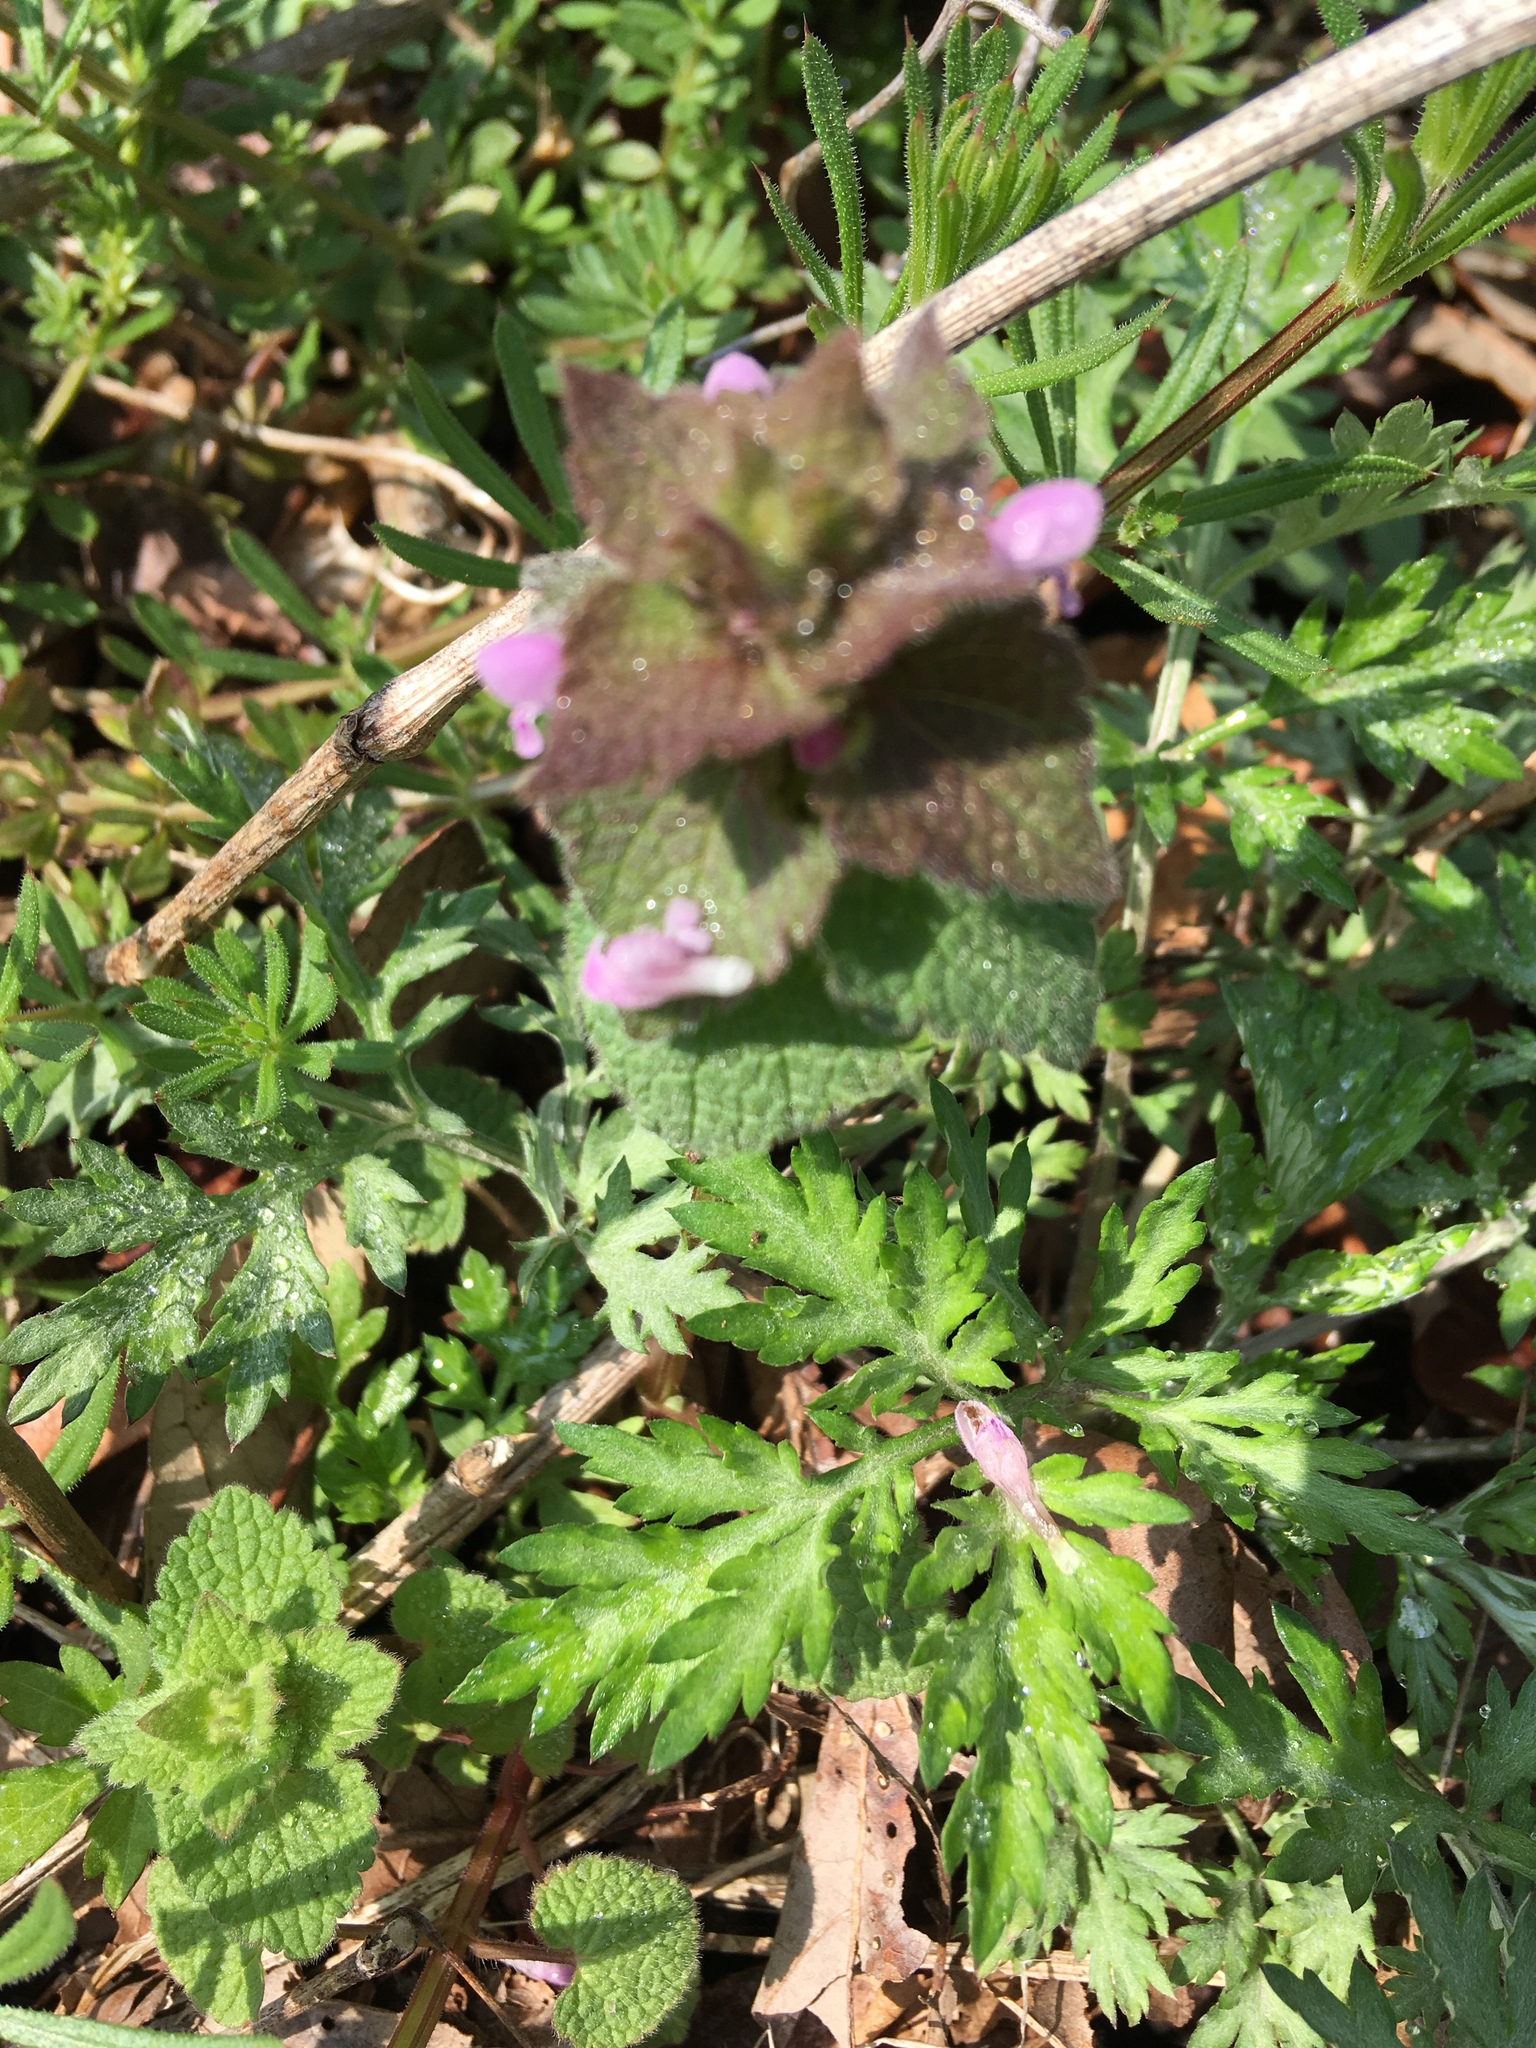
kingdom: Plantae
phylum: Tracheophyta
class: Magnoliopsida
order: Lamiales
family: Lamiaceae
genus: Lamium
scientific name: Lamium purpureum
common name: Red dead-nettle
